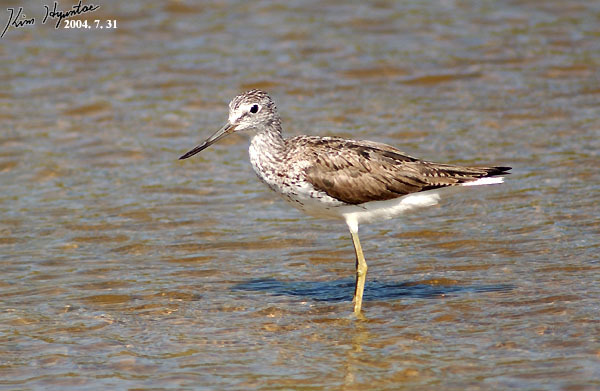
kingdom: Animalia
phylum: Chordata
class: Aves
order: Charadriiformes
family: Scolopacidae
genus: Tringa
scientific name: Tringa nebularia
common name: Common greenshank
